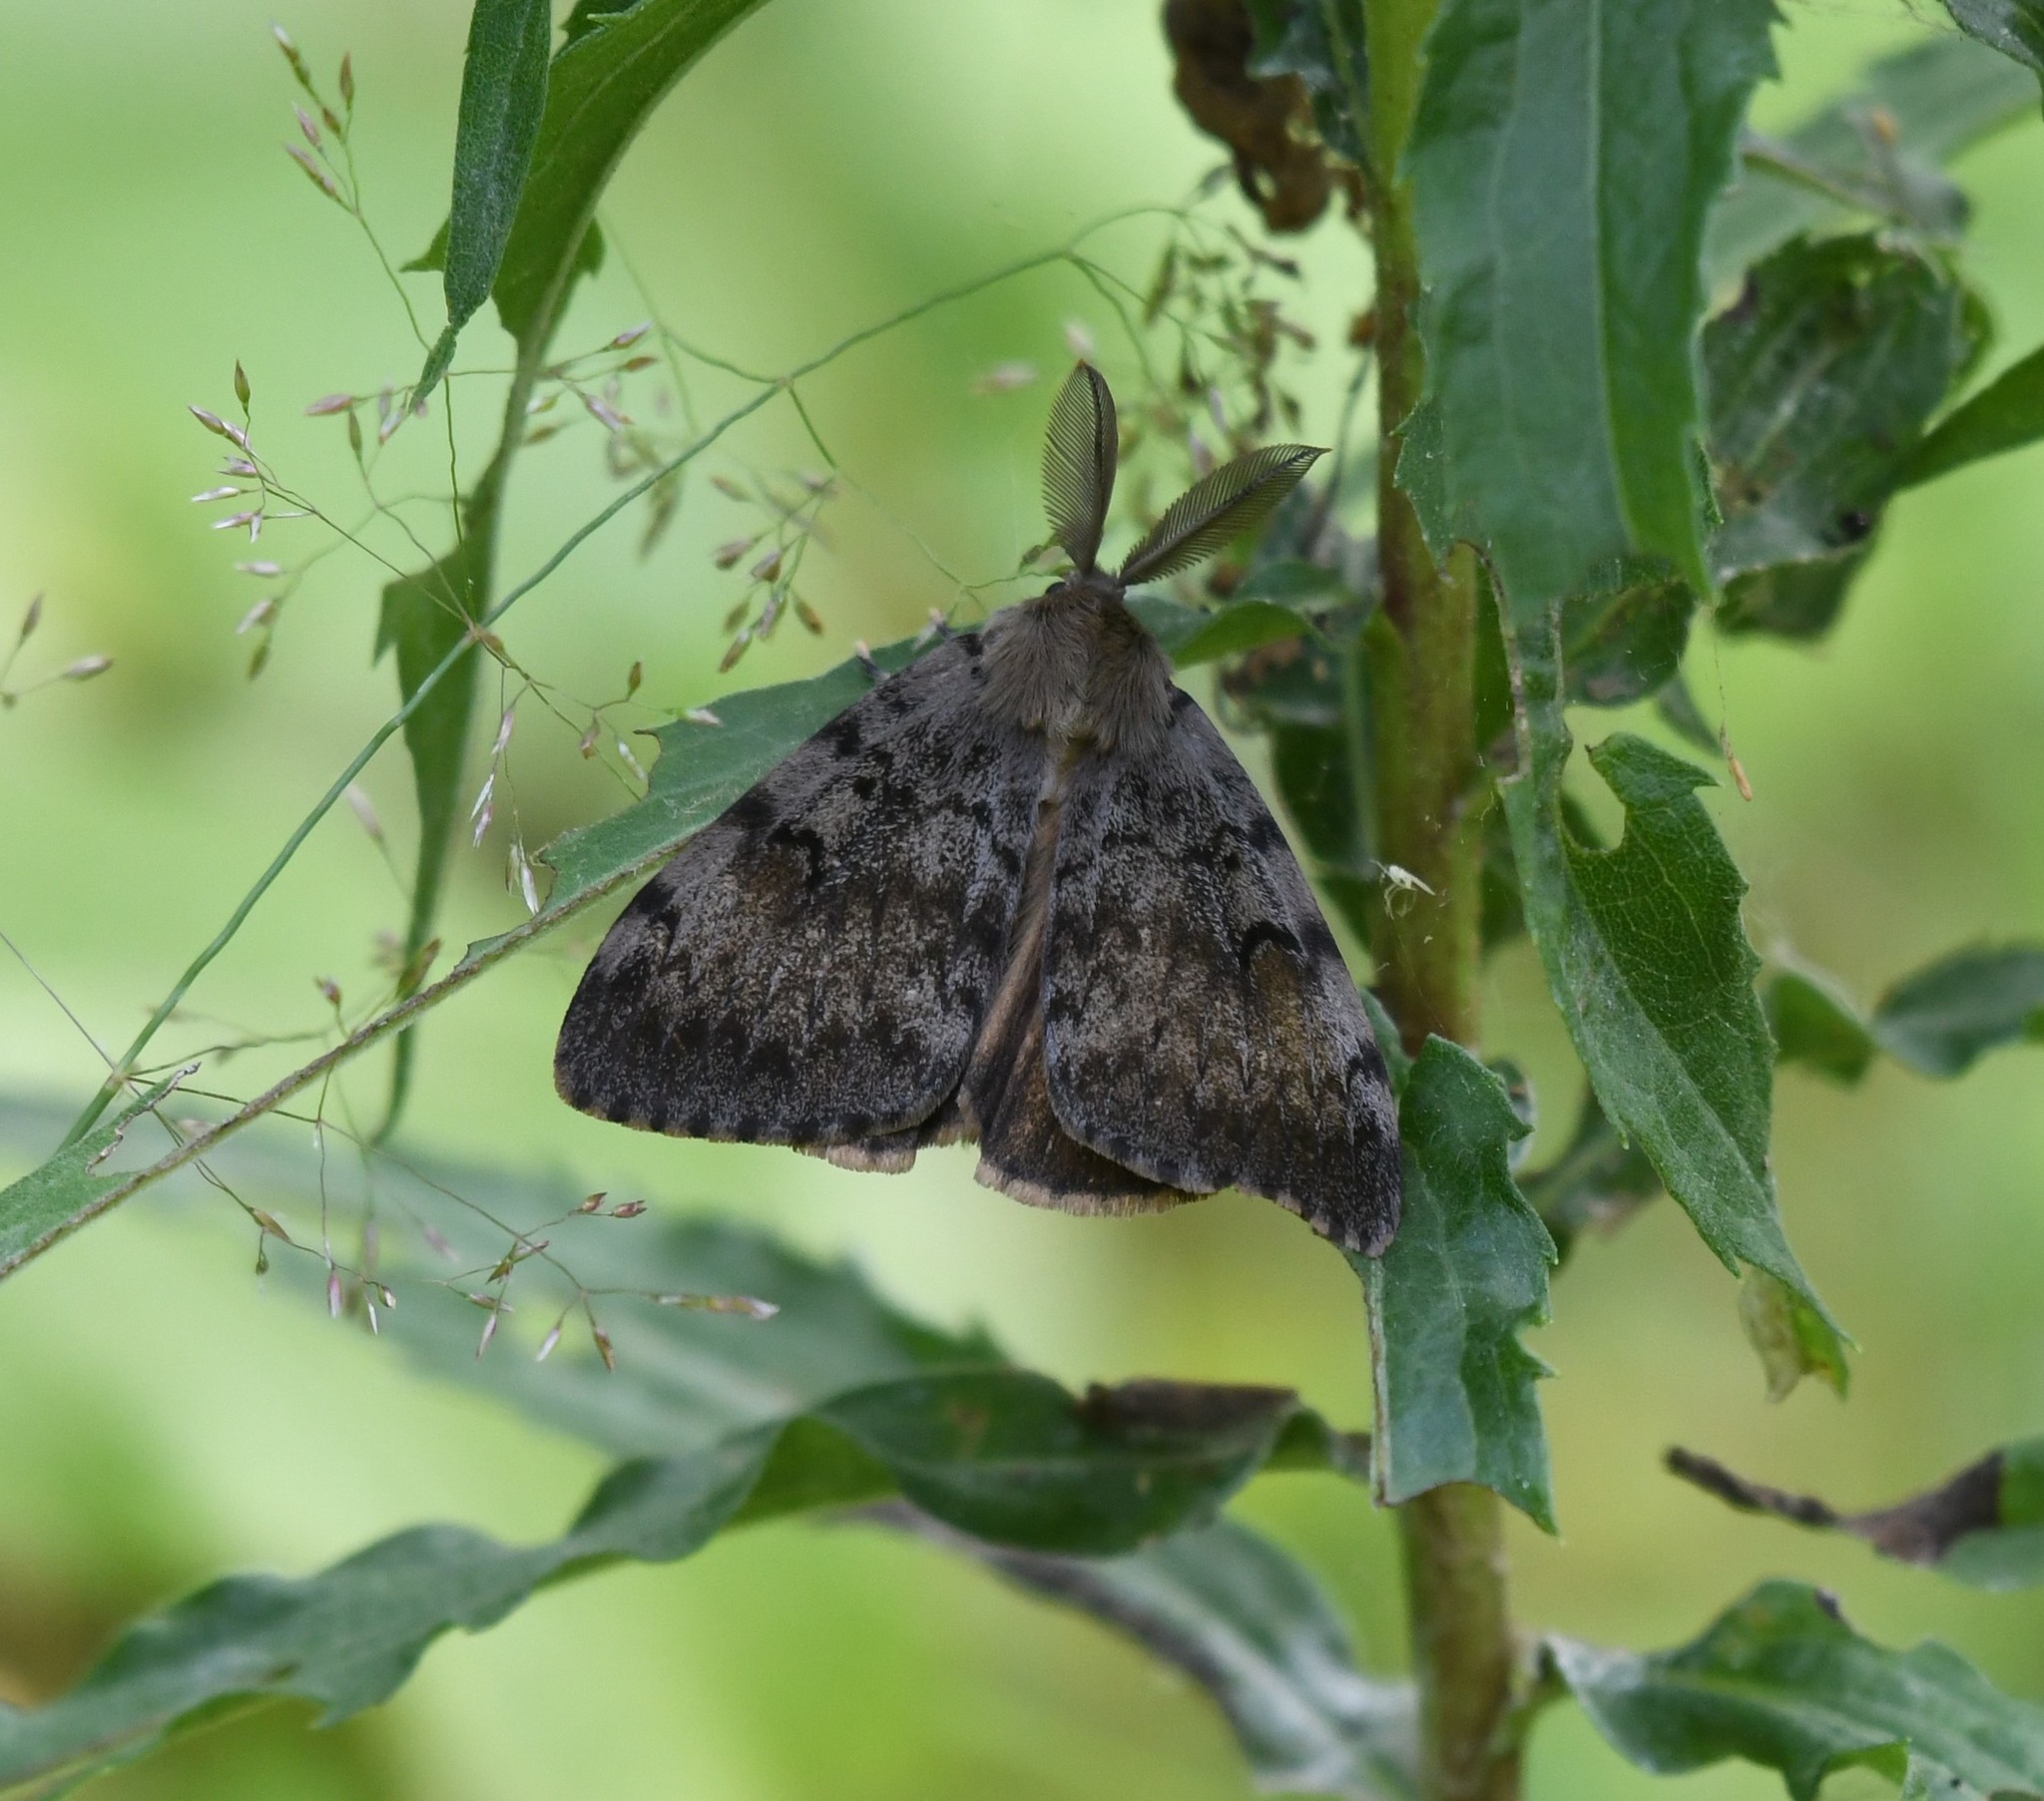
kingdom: Animalia
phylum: Arthropoda
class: Insecta
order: Lepidoptera
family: Erebidae
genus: Lymantria
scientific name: Lymantria dispar
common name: Gypsy moth
